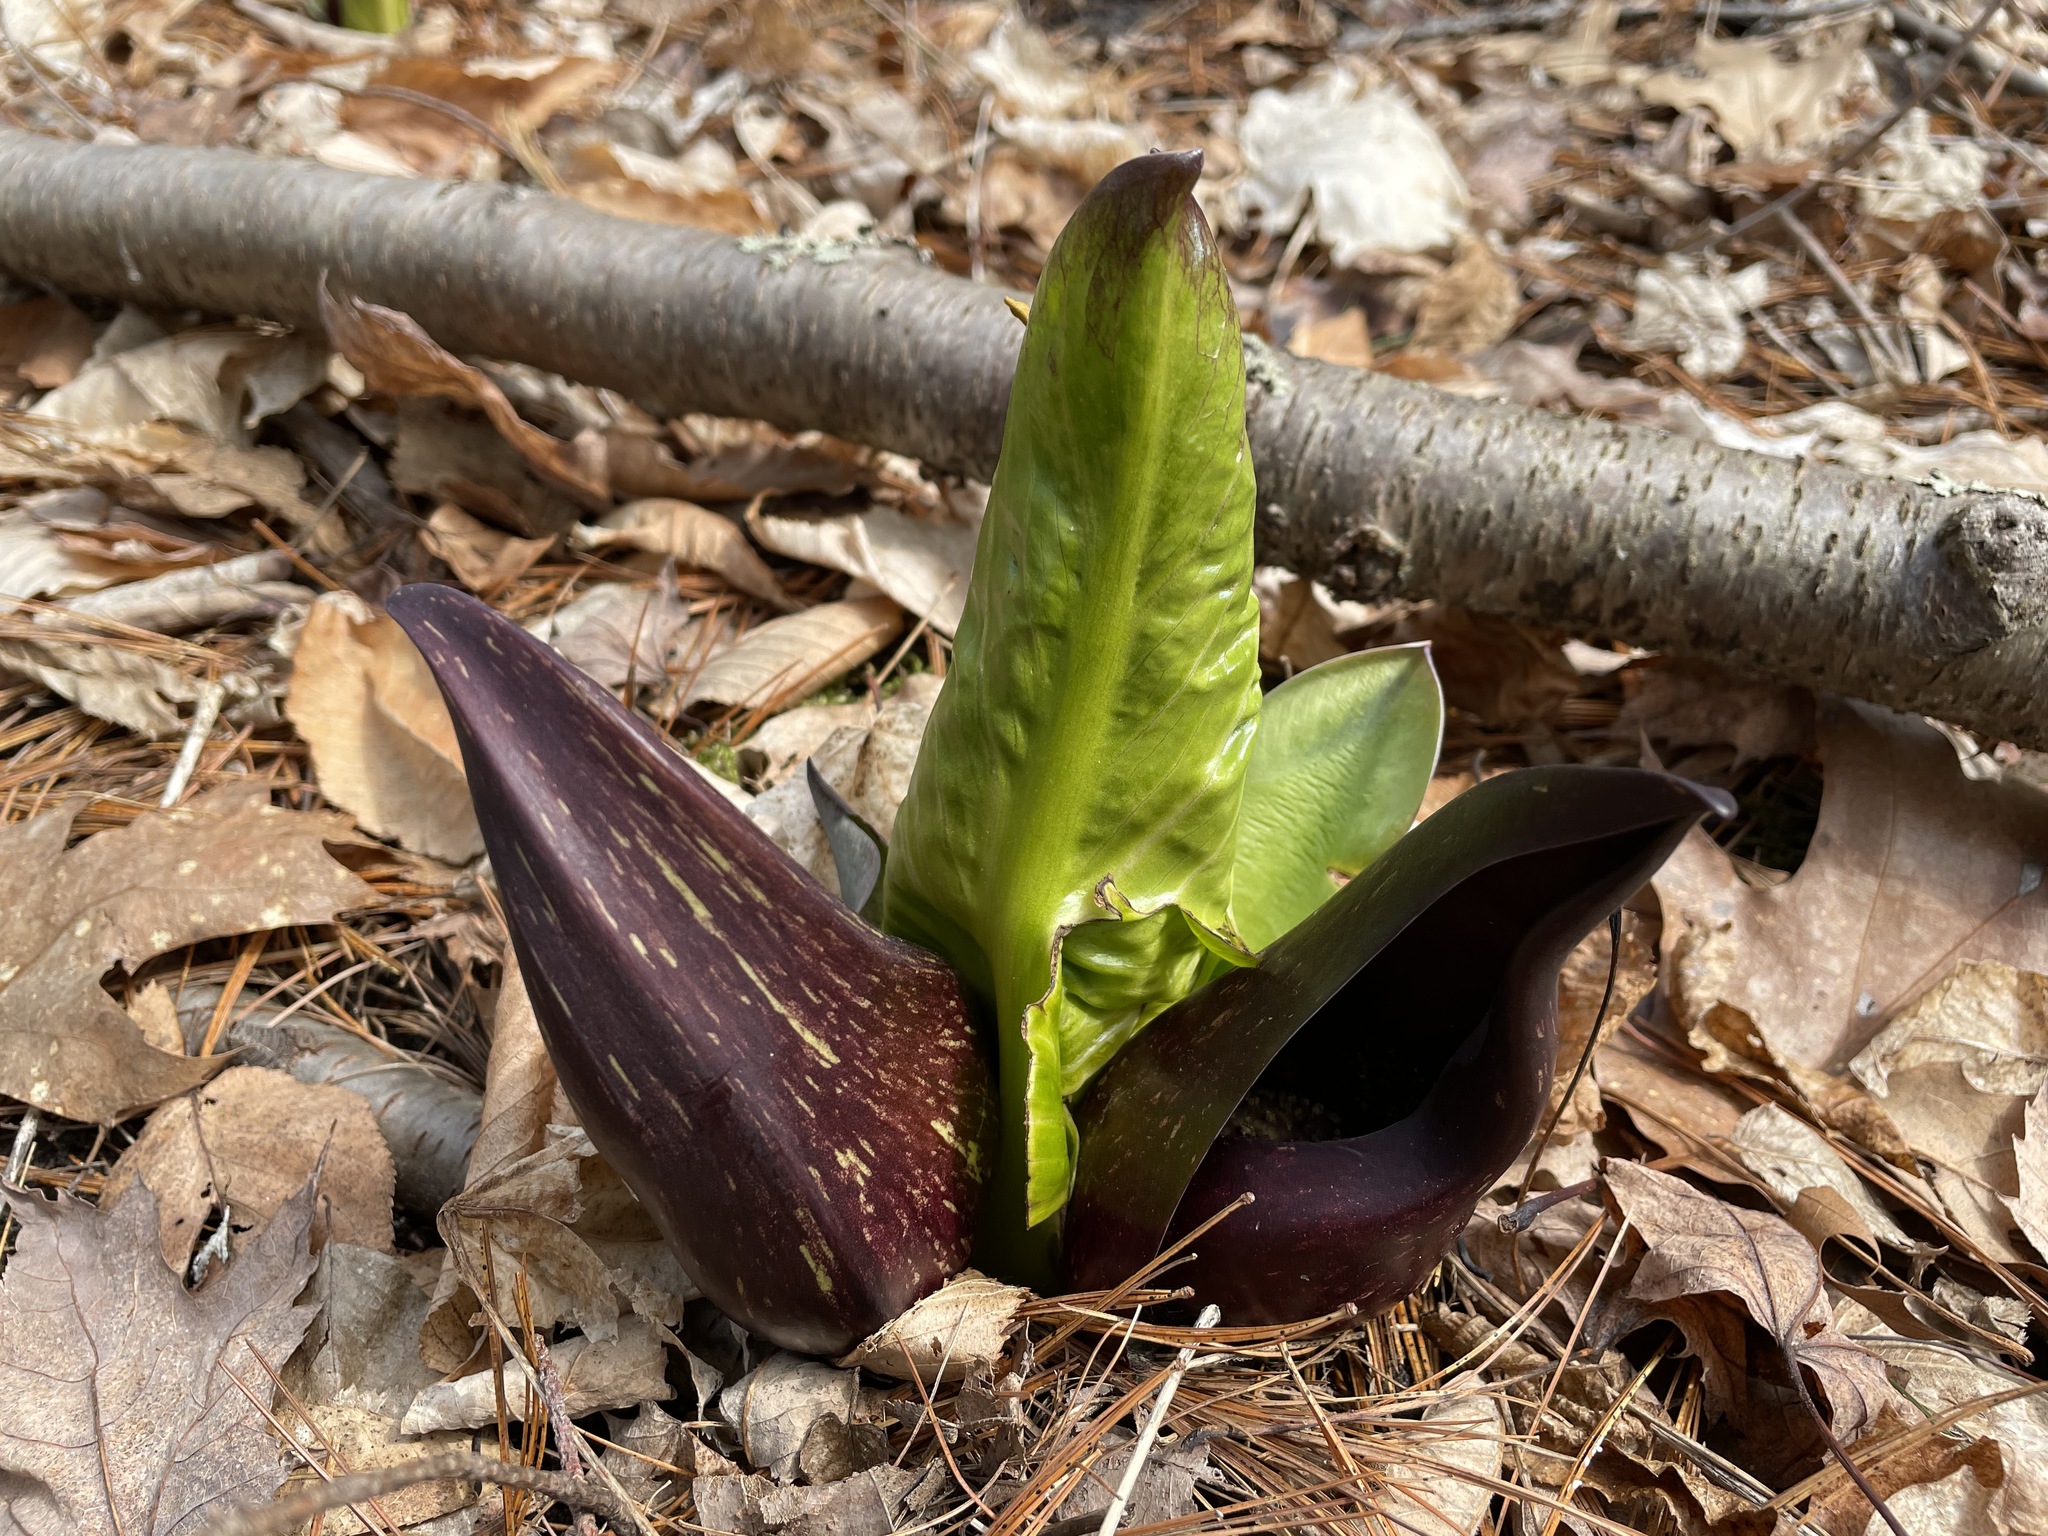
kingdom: Plantae
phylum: Tracheophyta
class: Liliopsida
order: Alismatales
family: Araceae
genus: Symplocarpus
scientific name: Symplocarpus foetidus
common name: Eastern skunk cabbage
